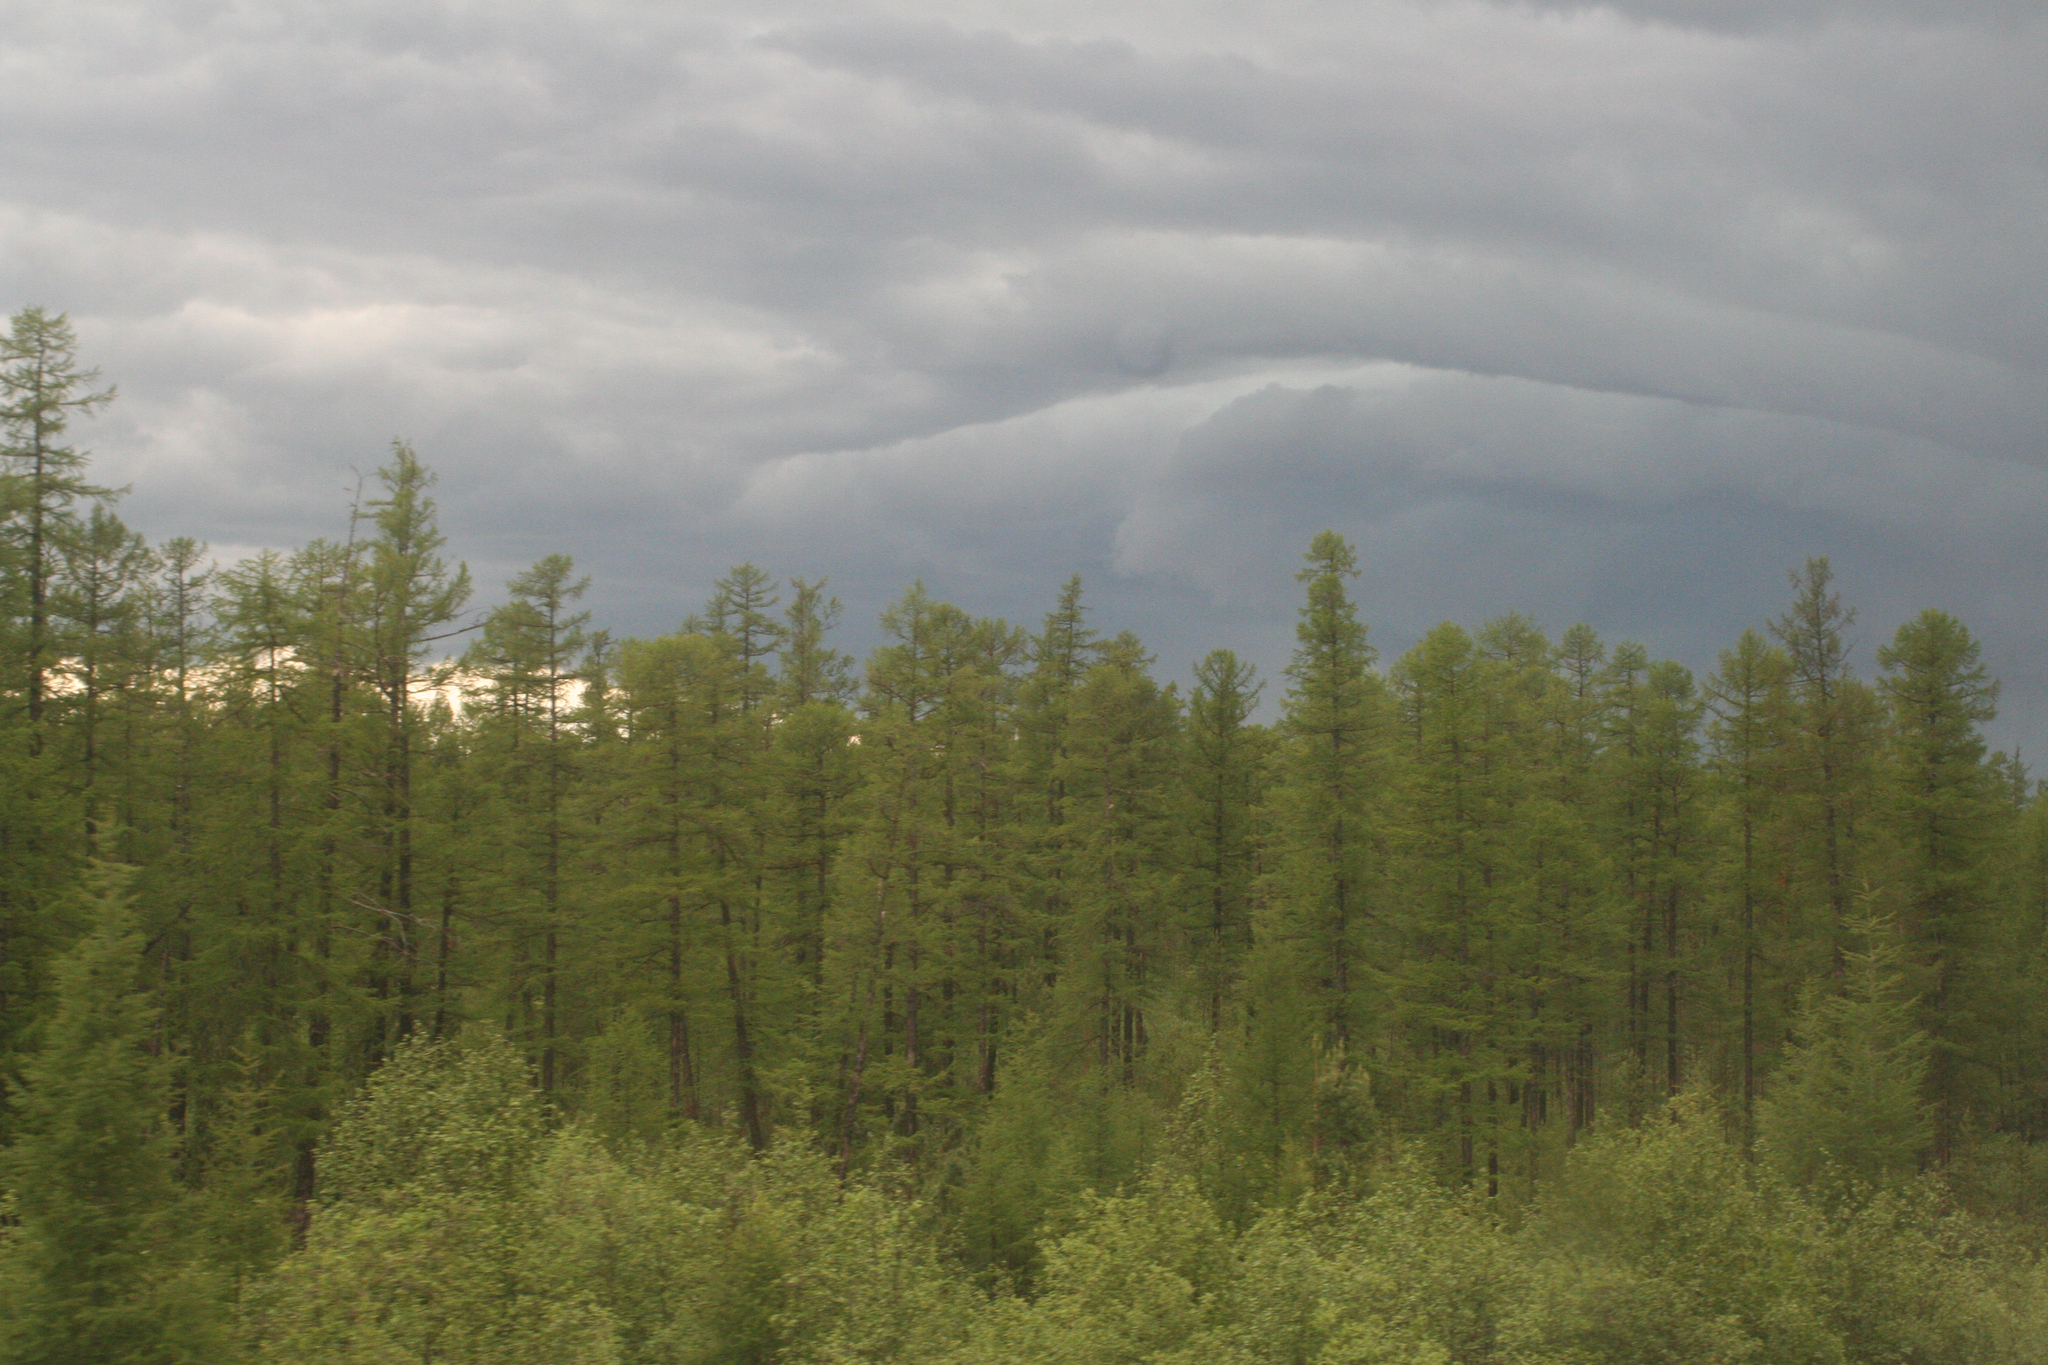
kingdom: Plantae
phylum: Tracheophyta
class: Pinopsida
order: Pinales
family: Pinaceae
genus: Larix
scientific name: Larix gmelinii
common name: Dahurian larch
